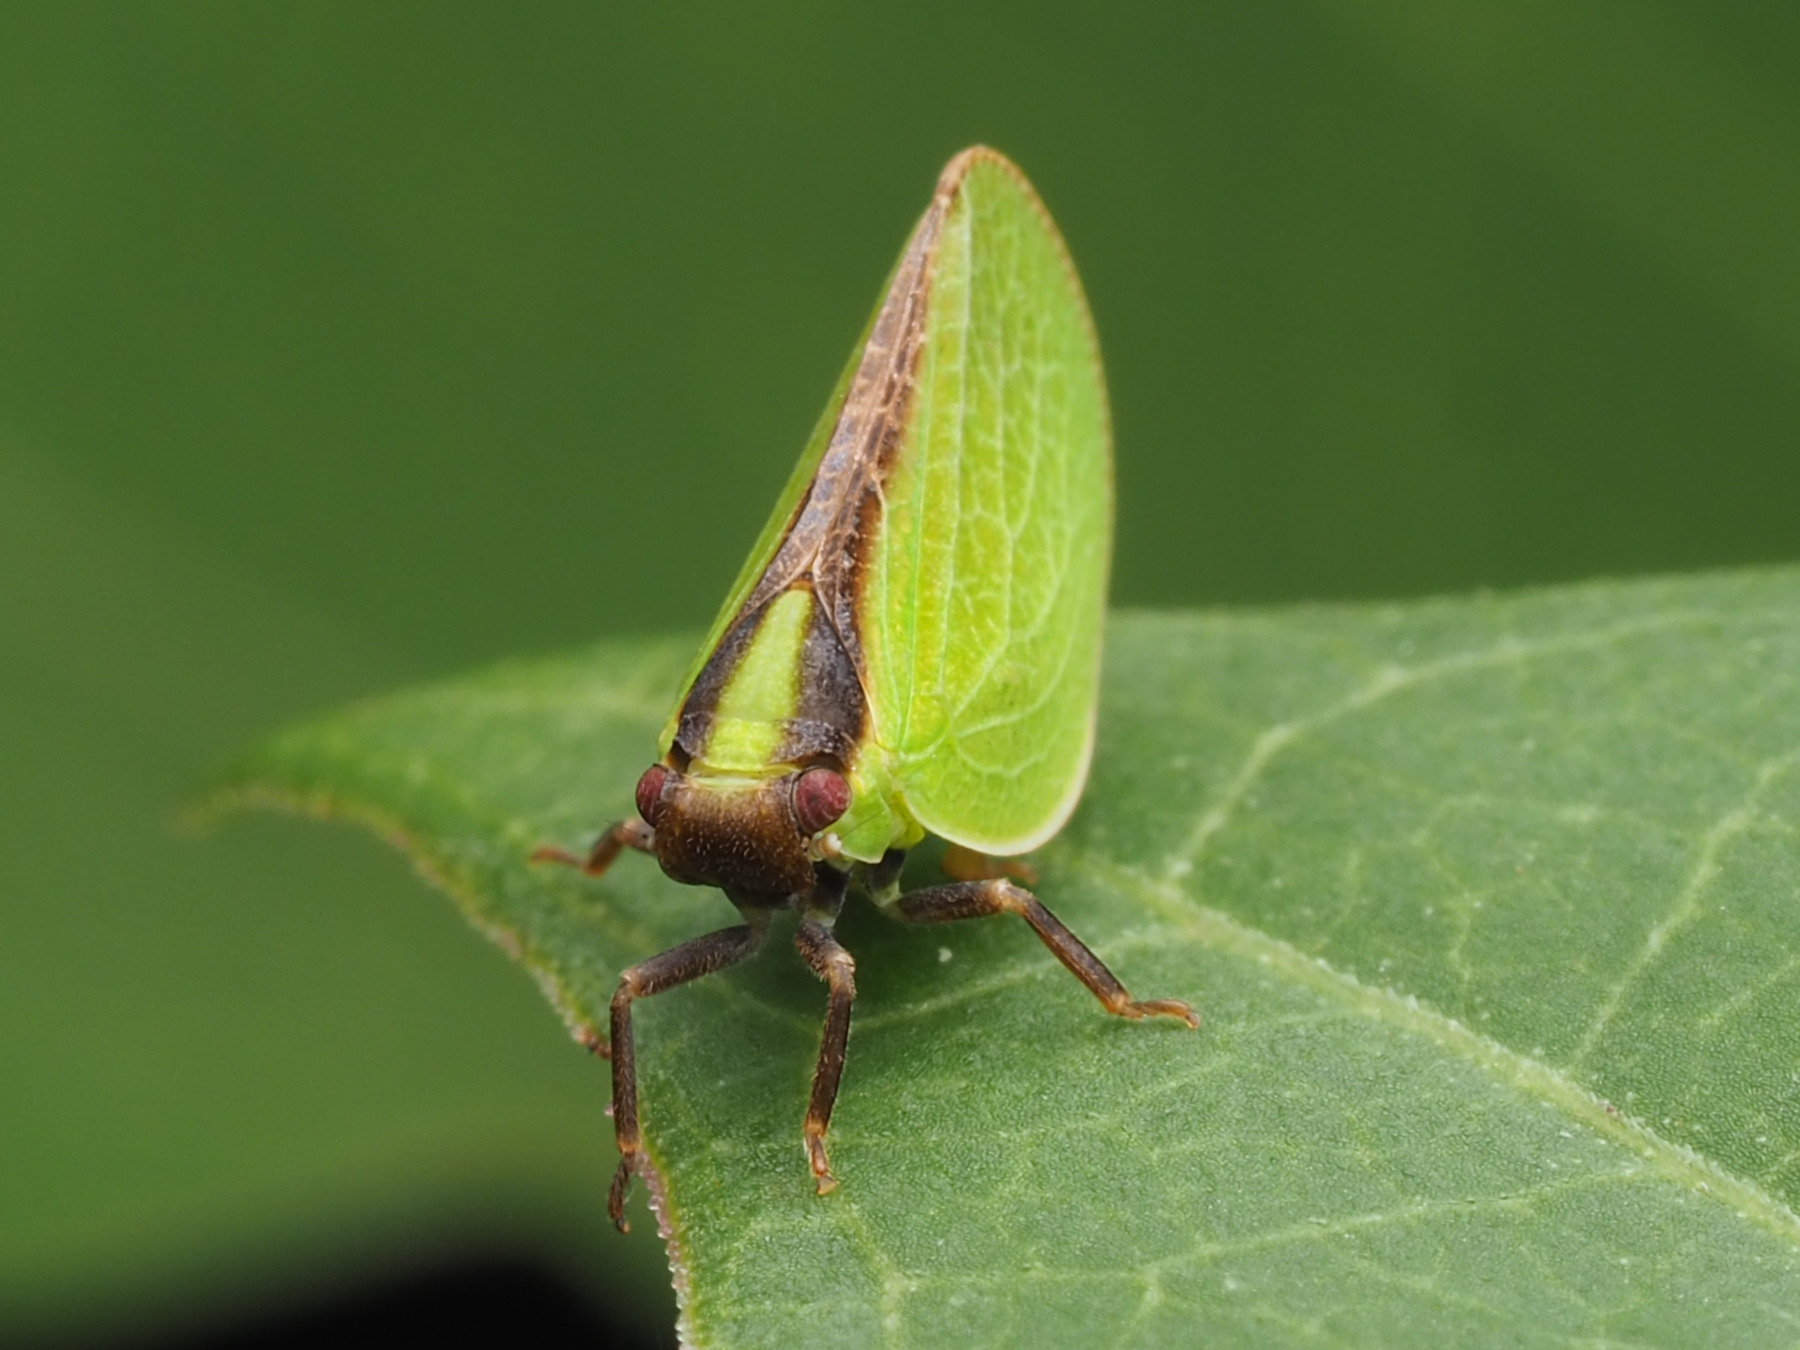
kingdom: Animalia
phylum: Arthropoda
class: Insecta
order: Hemiptera
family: Acanaloniidae
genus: Acanalonia
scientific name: Acanalonia bivittata
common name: Two-striped planthopper
